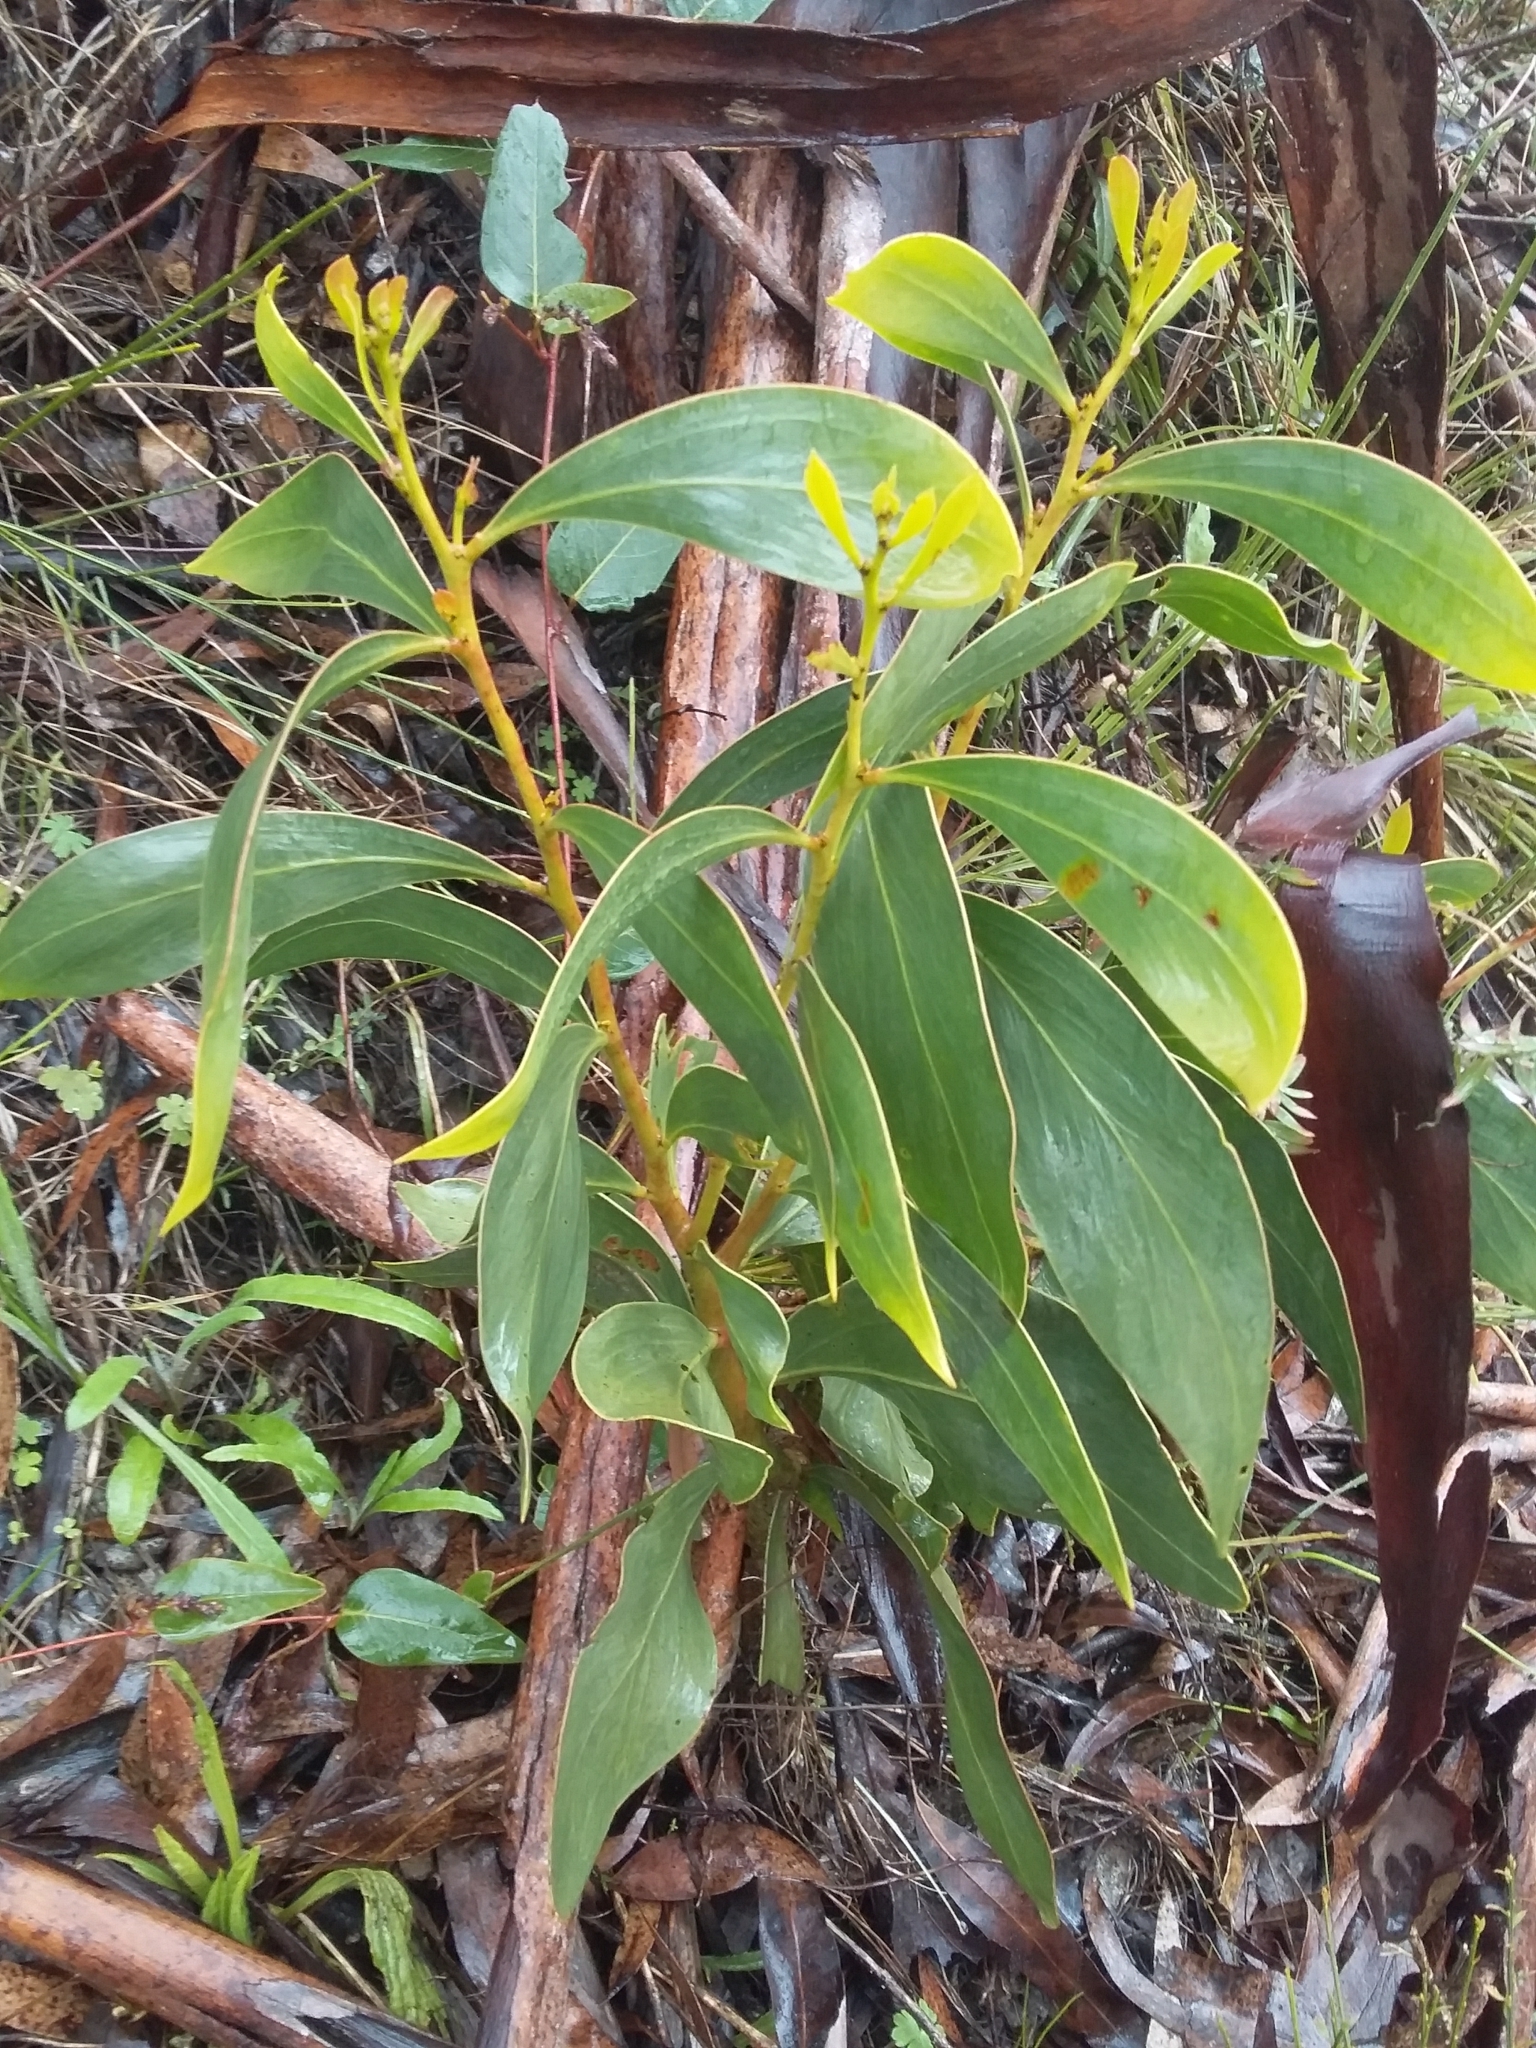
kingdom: Plantae
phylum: Tracheophyta
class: Magnoliopsida
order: Fabales
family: Fabaceae
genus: Acacia
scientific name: Acacia pycnantha
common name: Golden wattle
